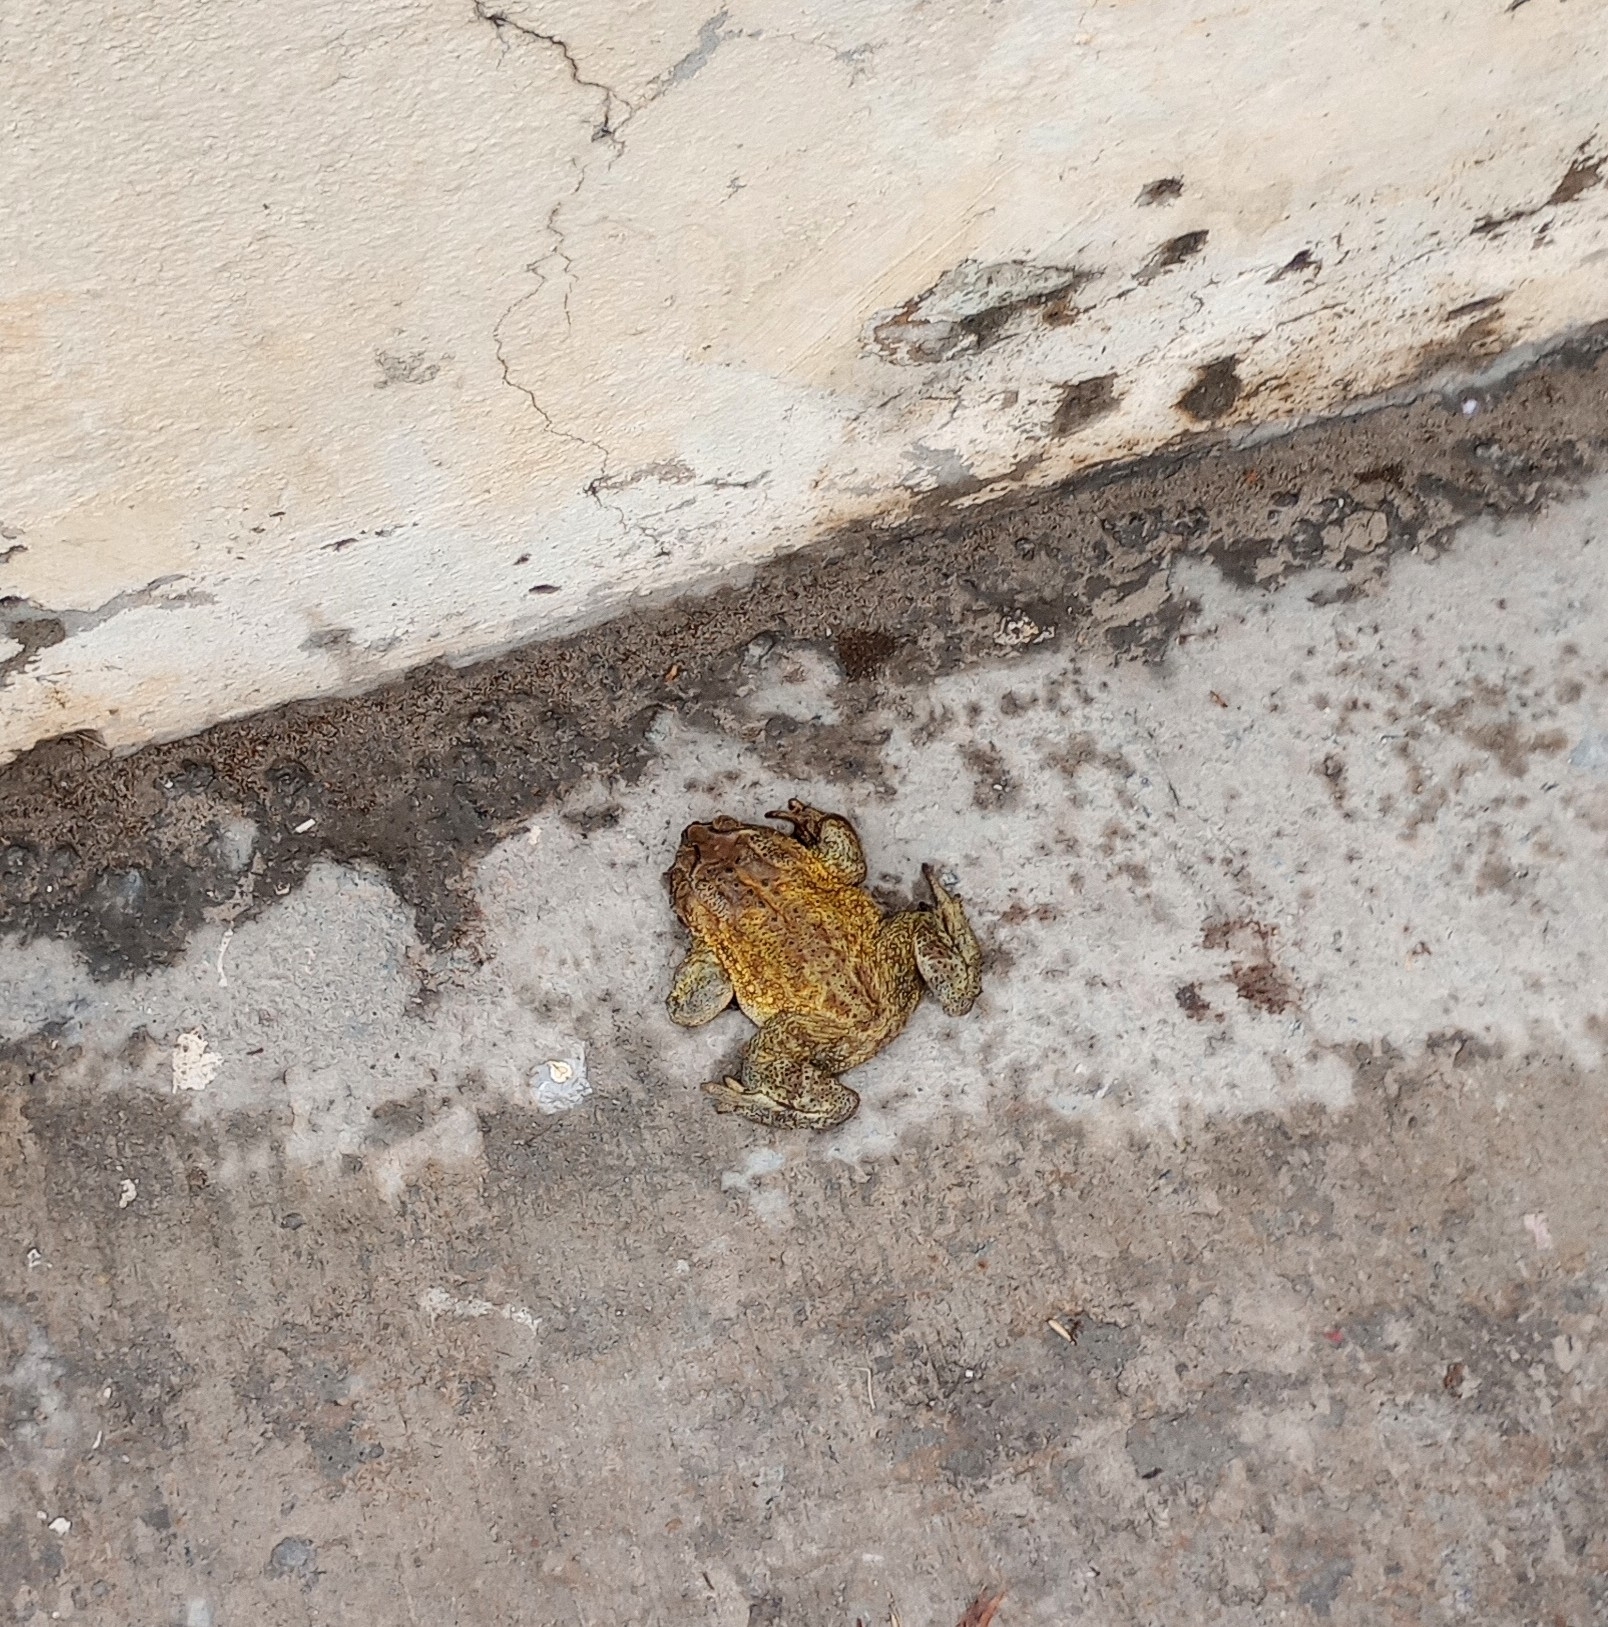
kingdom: Animalia
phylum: Chordata
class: Amphibia
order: Anura
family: Bufonidae
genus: Duttaphrynus
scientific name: Duttaphrynus melanostictus
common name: Common sunda toad
